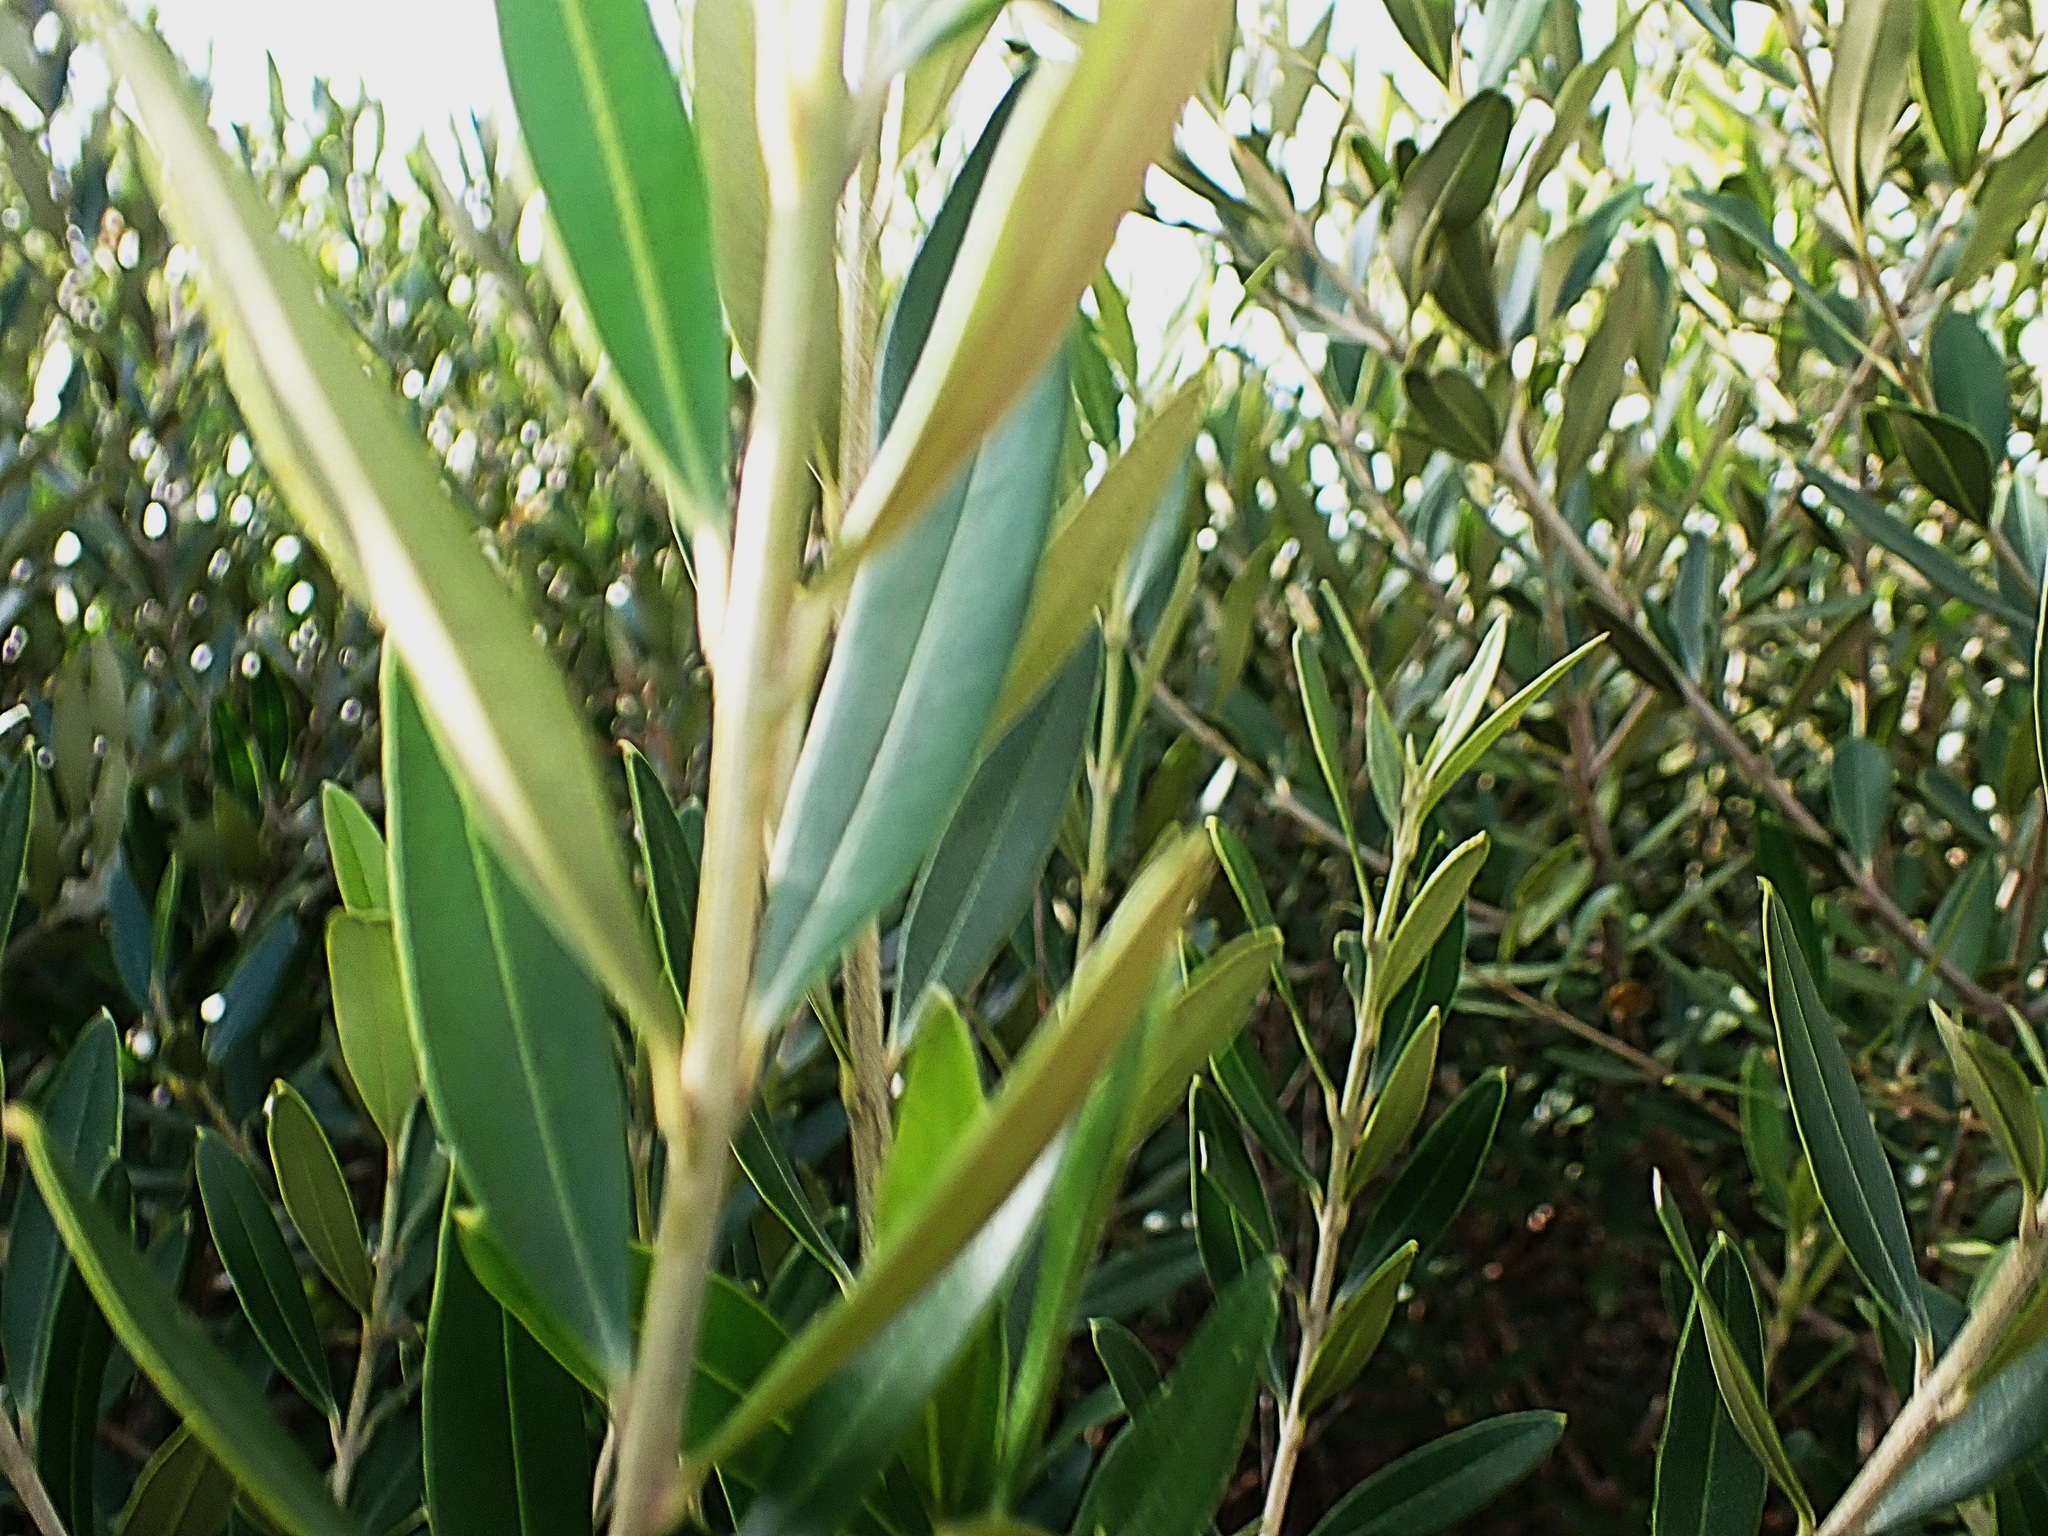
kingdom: Plantae
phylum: Tracheophyta
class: Magnoliopsida
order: Lamiales
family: Oleaceae
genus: Olea
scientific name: Olea europaea
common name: Olive
